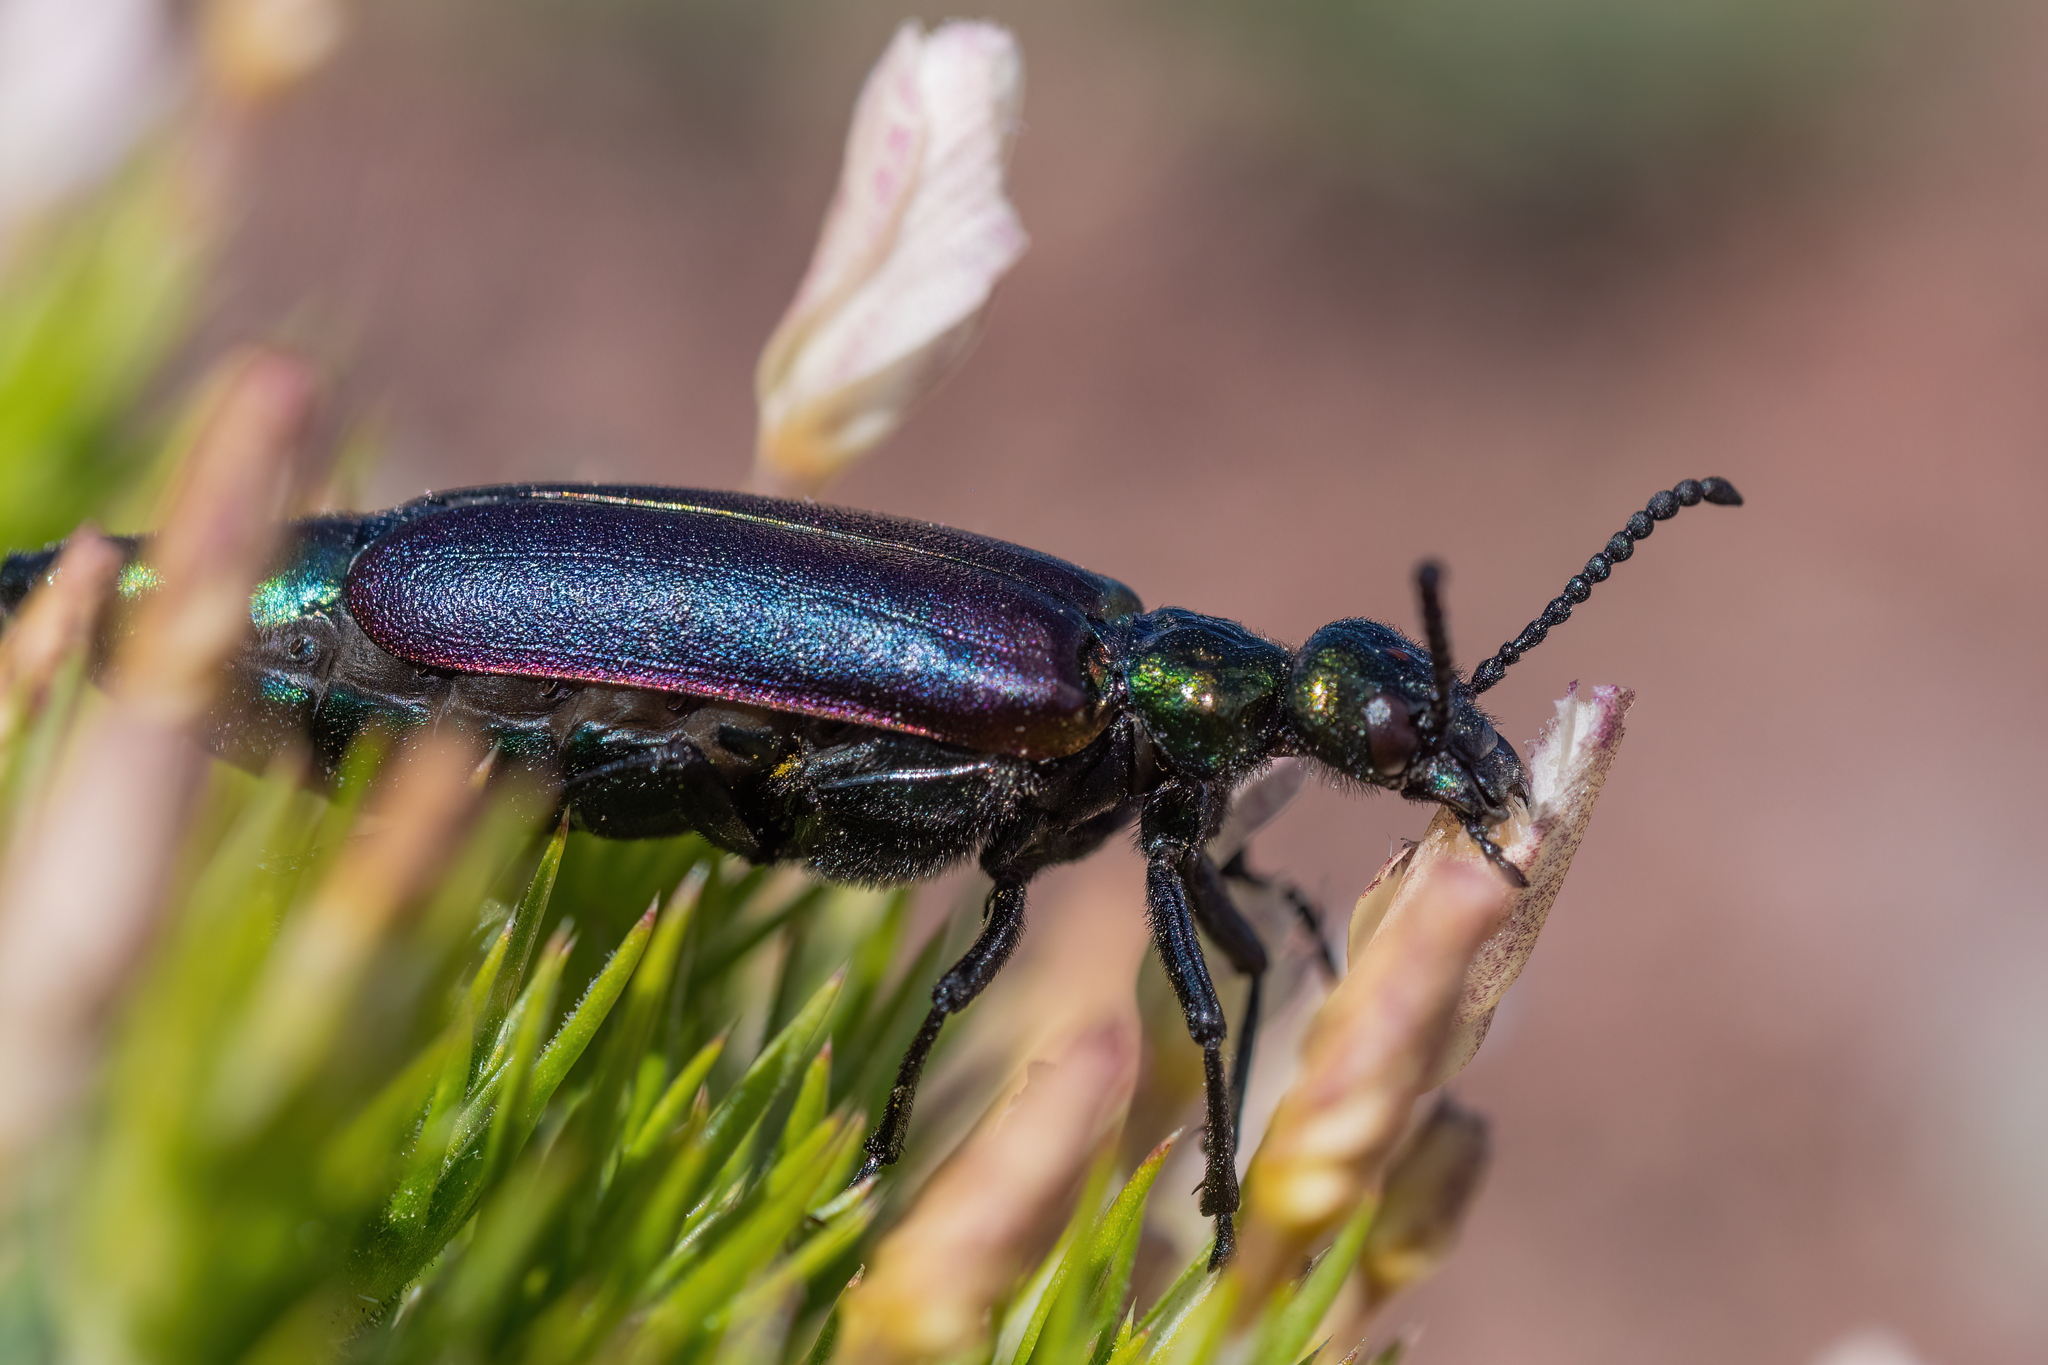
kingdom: Animalia
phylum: Arthropoda
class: Insecta
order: Coleoptera
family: Meloidae
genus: Lytta
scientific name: Lytta nuttallii
